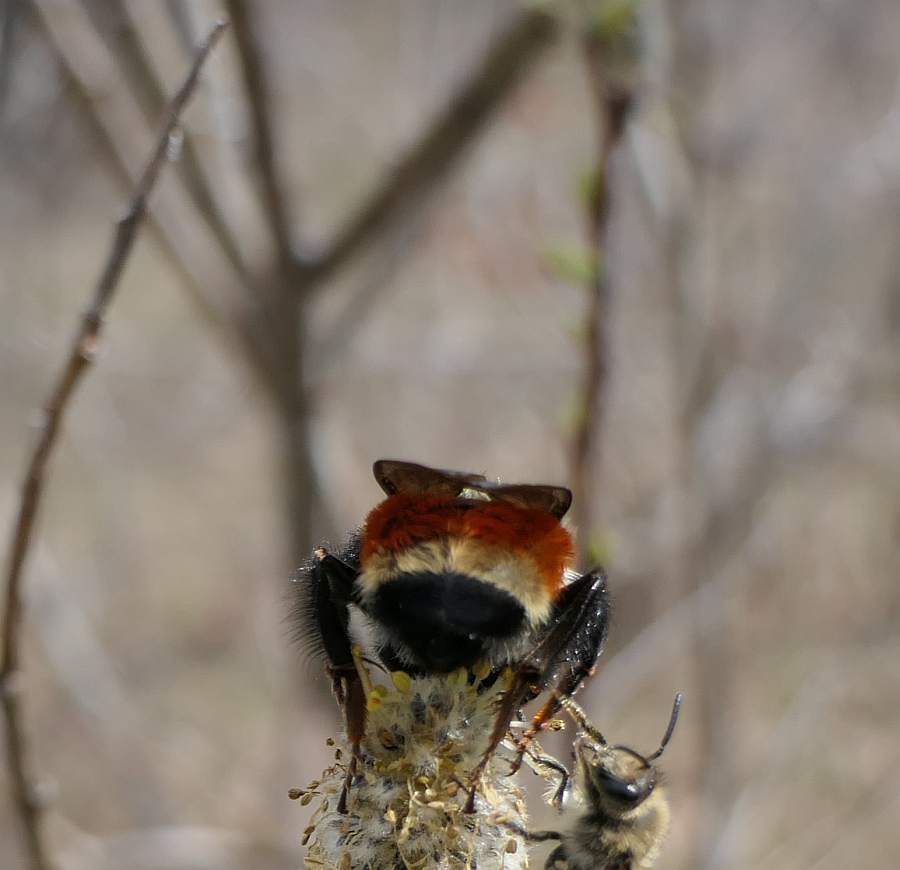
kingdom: Animalia
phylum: Arthropoda
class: Insecta
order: Hymenoptera
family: Apidae
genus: Bombus
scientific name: Bombus ternarius
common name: Tri-colored bumble bee
